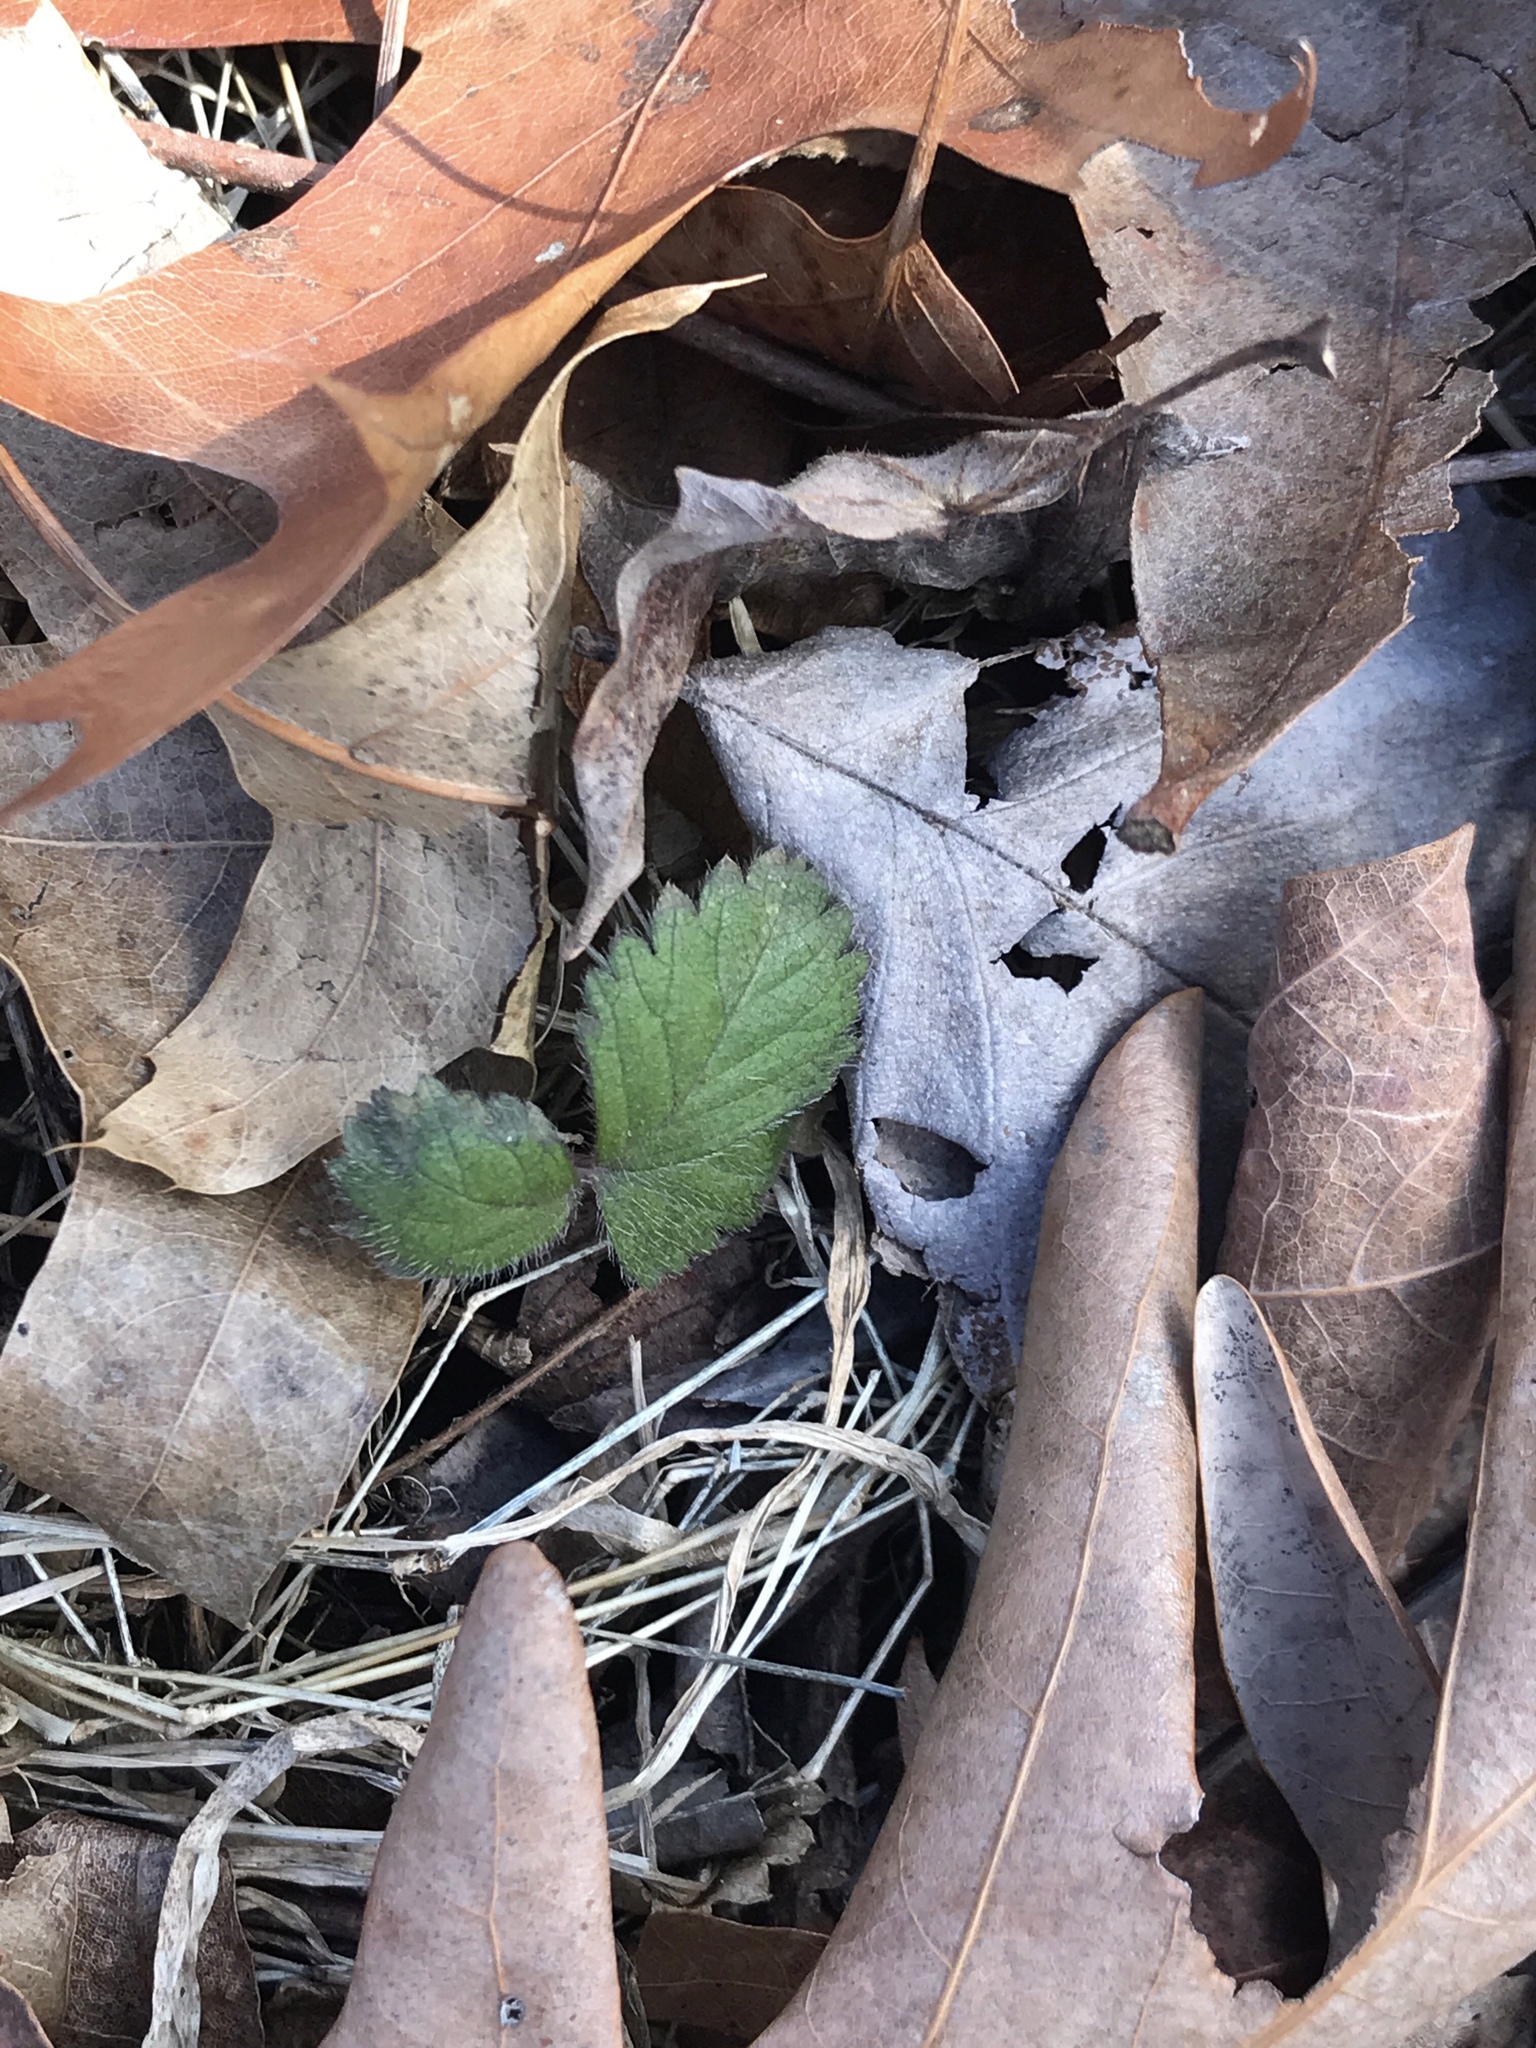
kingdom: Plantae
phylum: Tracheophyta
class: Magnoliopsida
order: Rosales
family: Rosaceae
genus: Potentilla
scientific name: Potentilla indica
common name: Yellow-flowered strawberry
